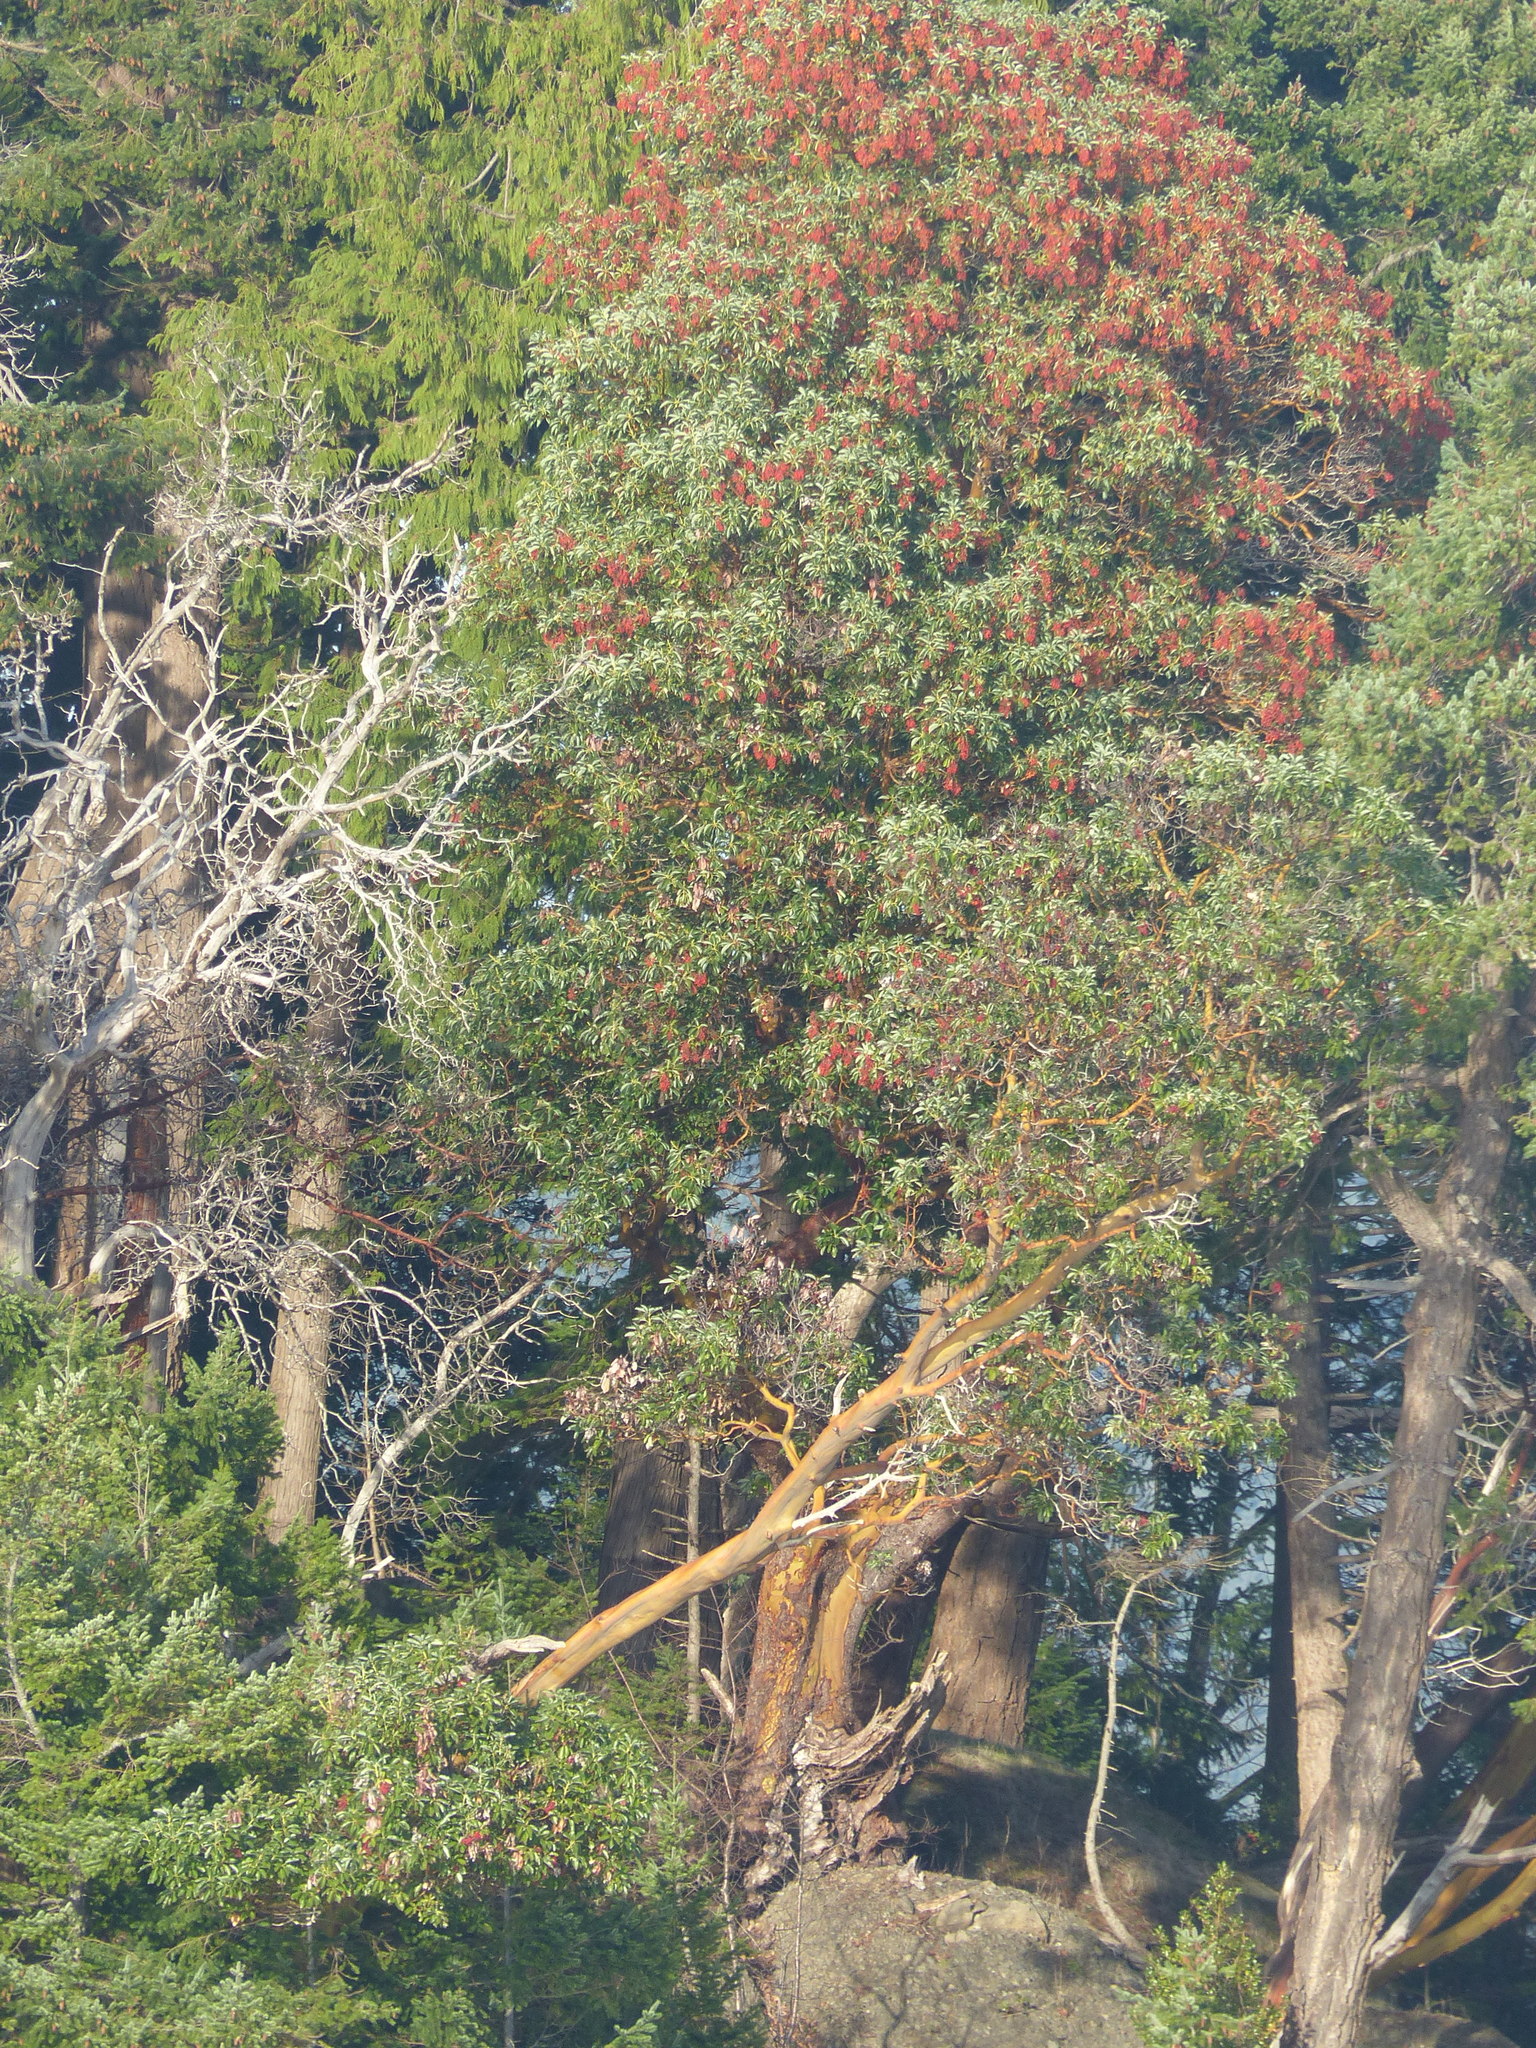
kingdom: Plantae
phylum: Tracheophyta
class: Magnoliopsida
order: Ericales
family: Ericaceae
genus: Arbutus
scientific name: Arbutus menziesii
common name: Pacific madrone
